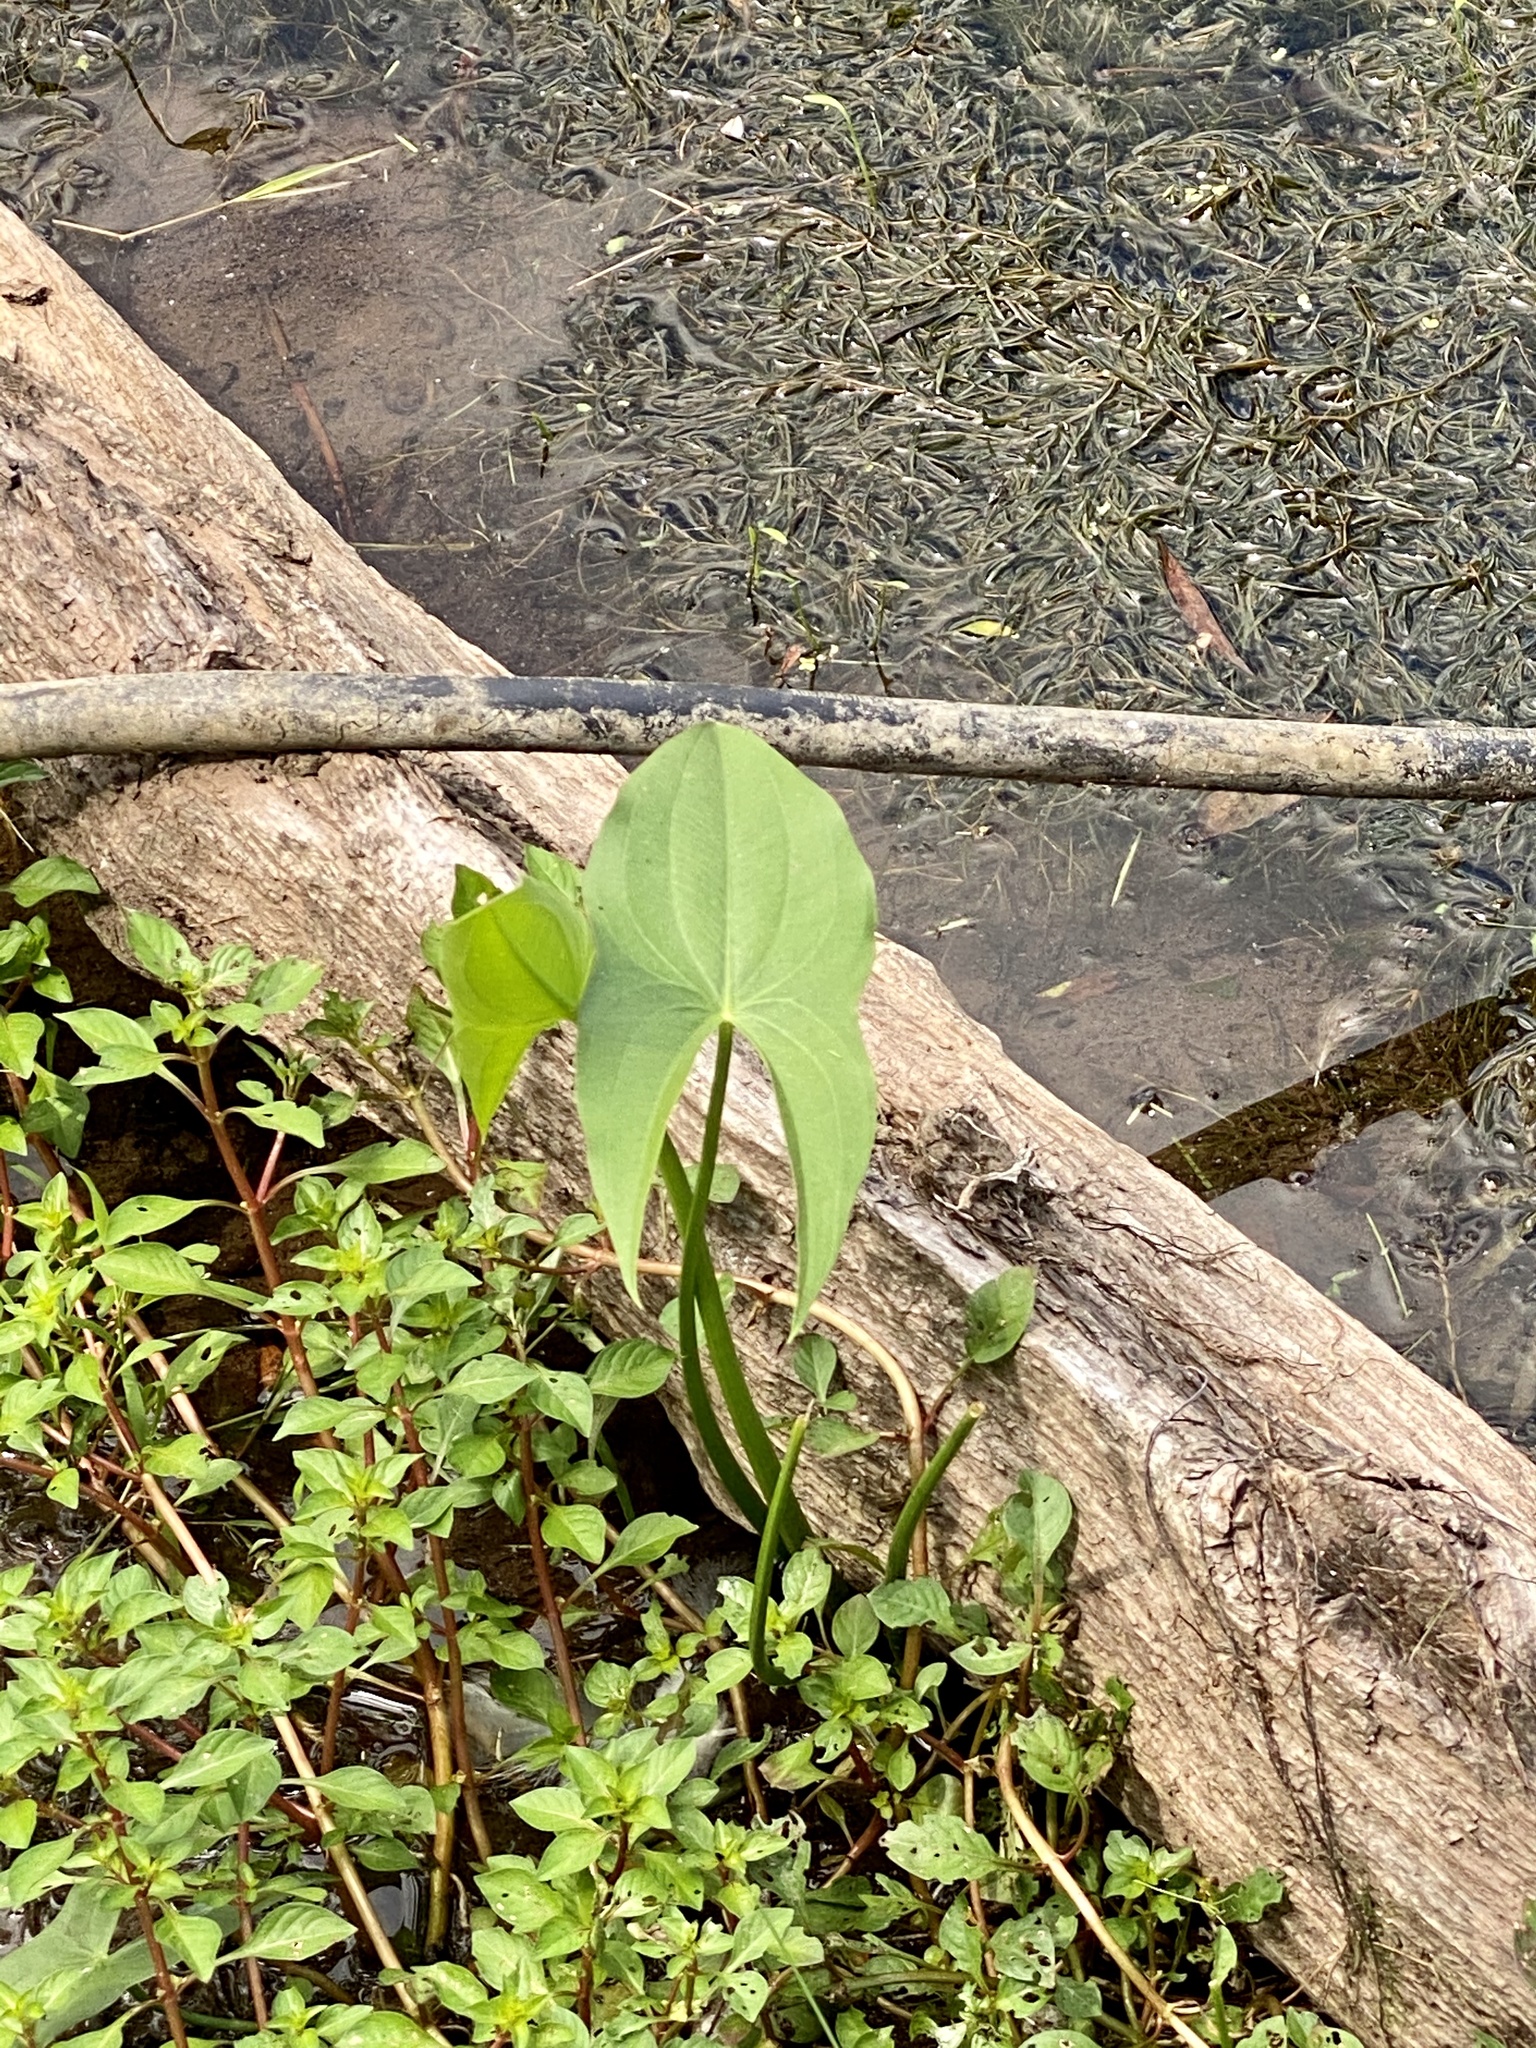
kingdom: Plantae
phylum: Tracheophyta
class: Liliopsida
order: Alismatales
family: Alismataceae
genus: Sagittaria
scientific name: Sagittaria latifolia
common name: Duck-potato
